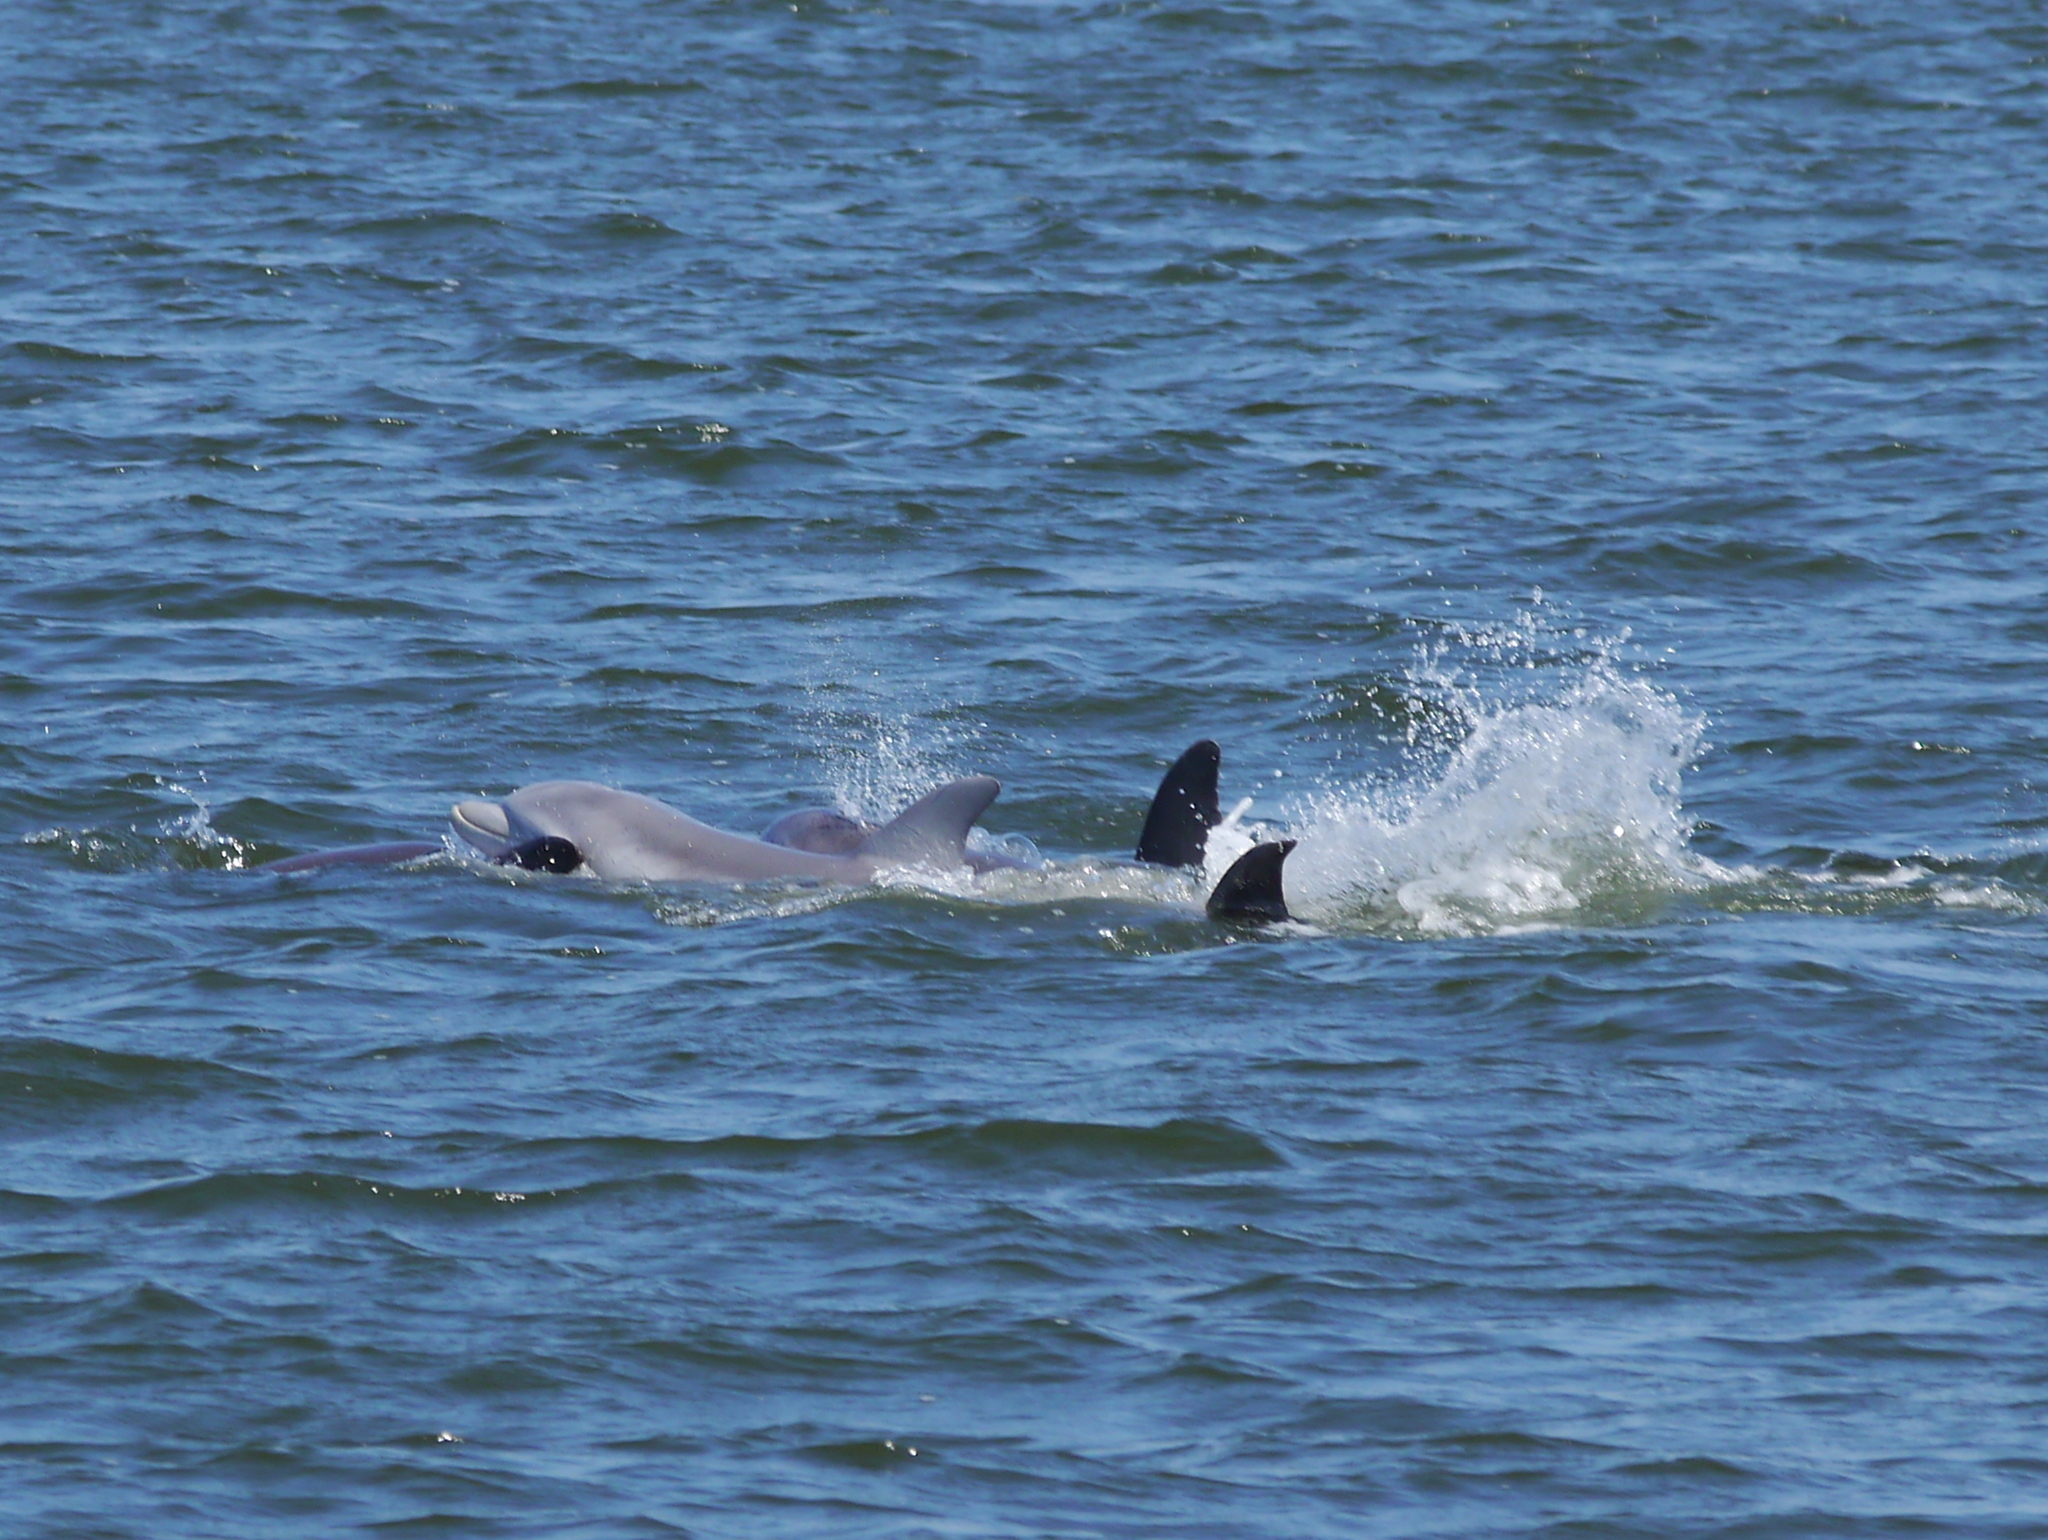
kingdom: Animalia
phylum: Chordata
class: Mammalia
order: Cetacea
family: Delphinidae
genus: Tursiops
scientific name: Tursiops truncatus
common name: Bottlenose dolphin
